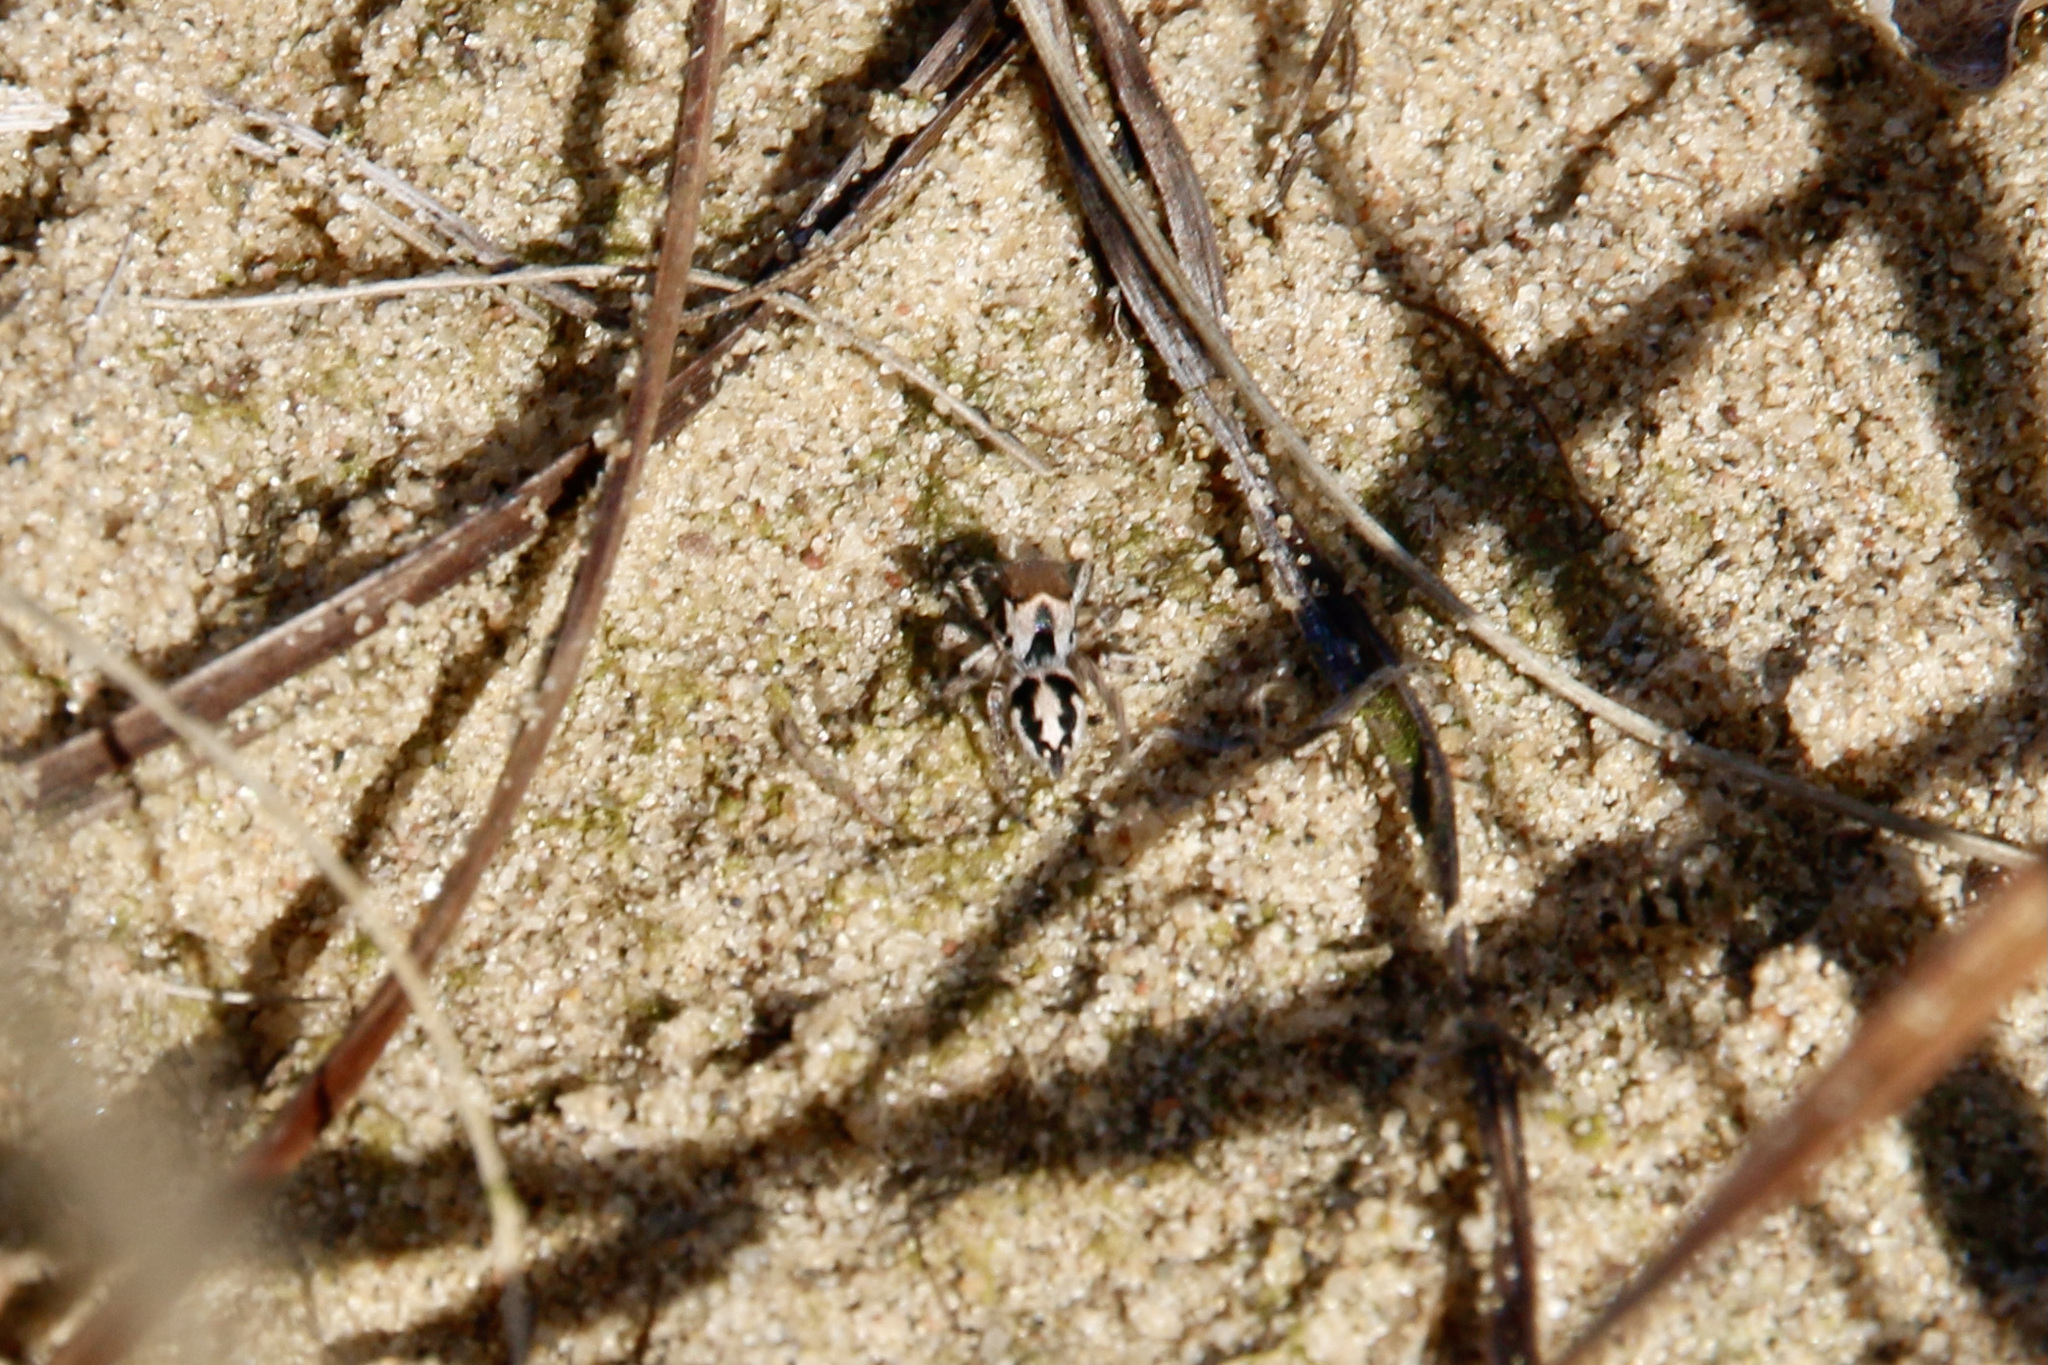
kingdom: Animalia
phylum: Arthropoda
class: Arachnida
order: Araneae
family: Salticidae
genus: Habronattus
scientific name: Habronattus viridipes
